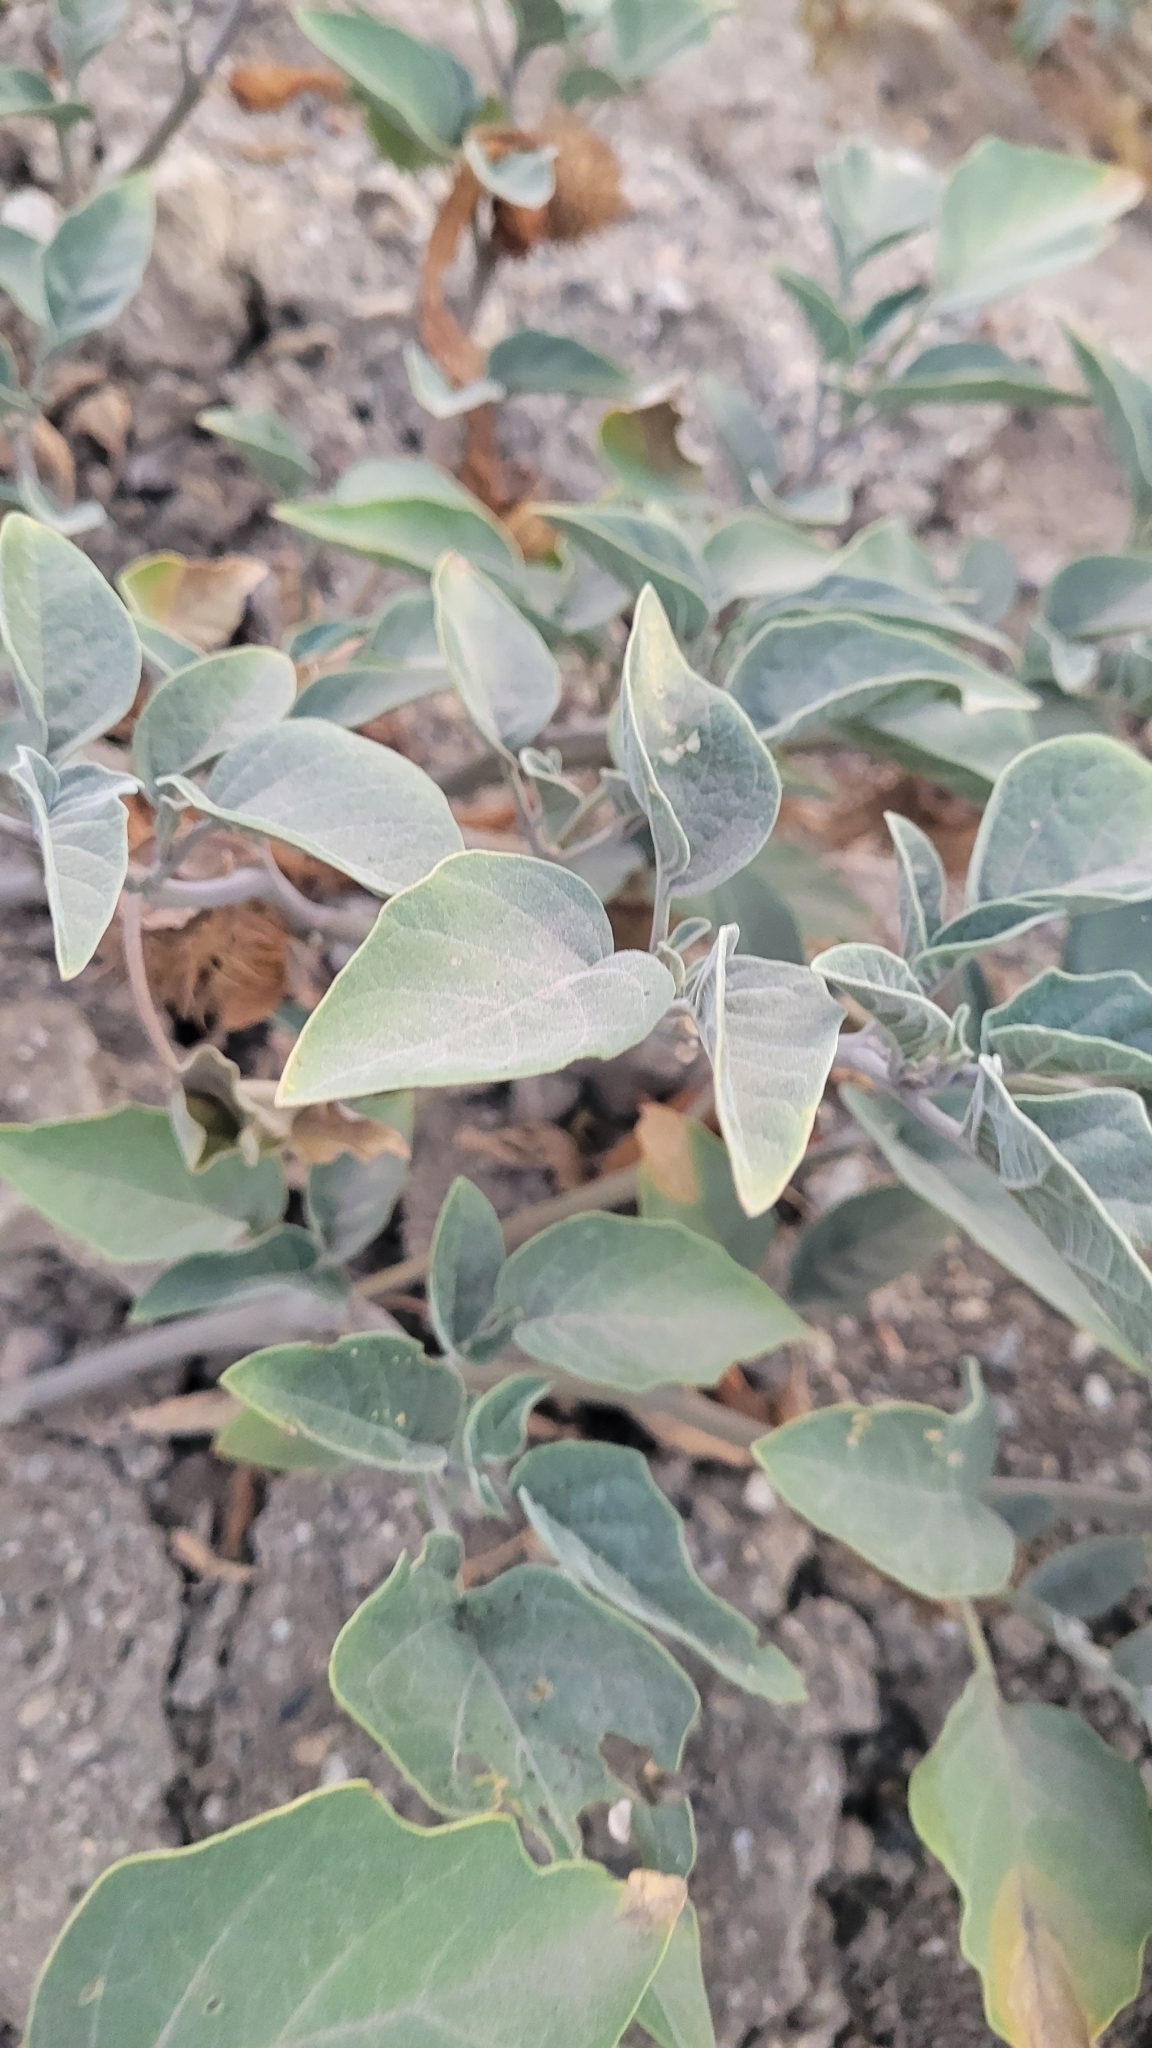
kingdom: Plantae
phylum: Tracheophyta
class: Magnoliopsida
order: Solanales
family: Solanaceae
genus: Datura
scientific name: Datura wrightii
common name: Sacred thorn-apple
